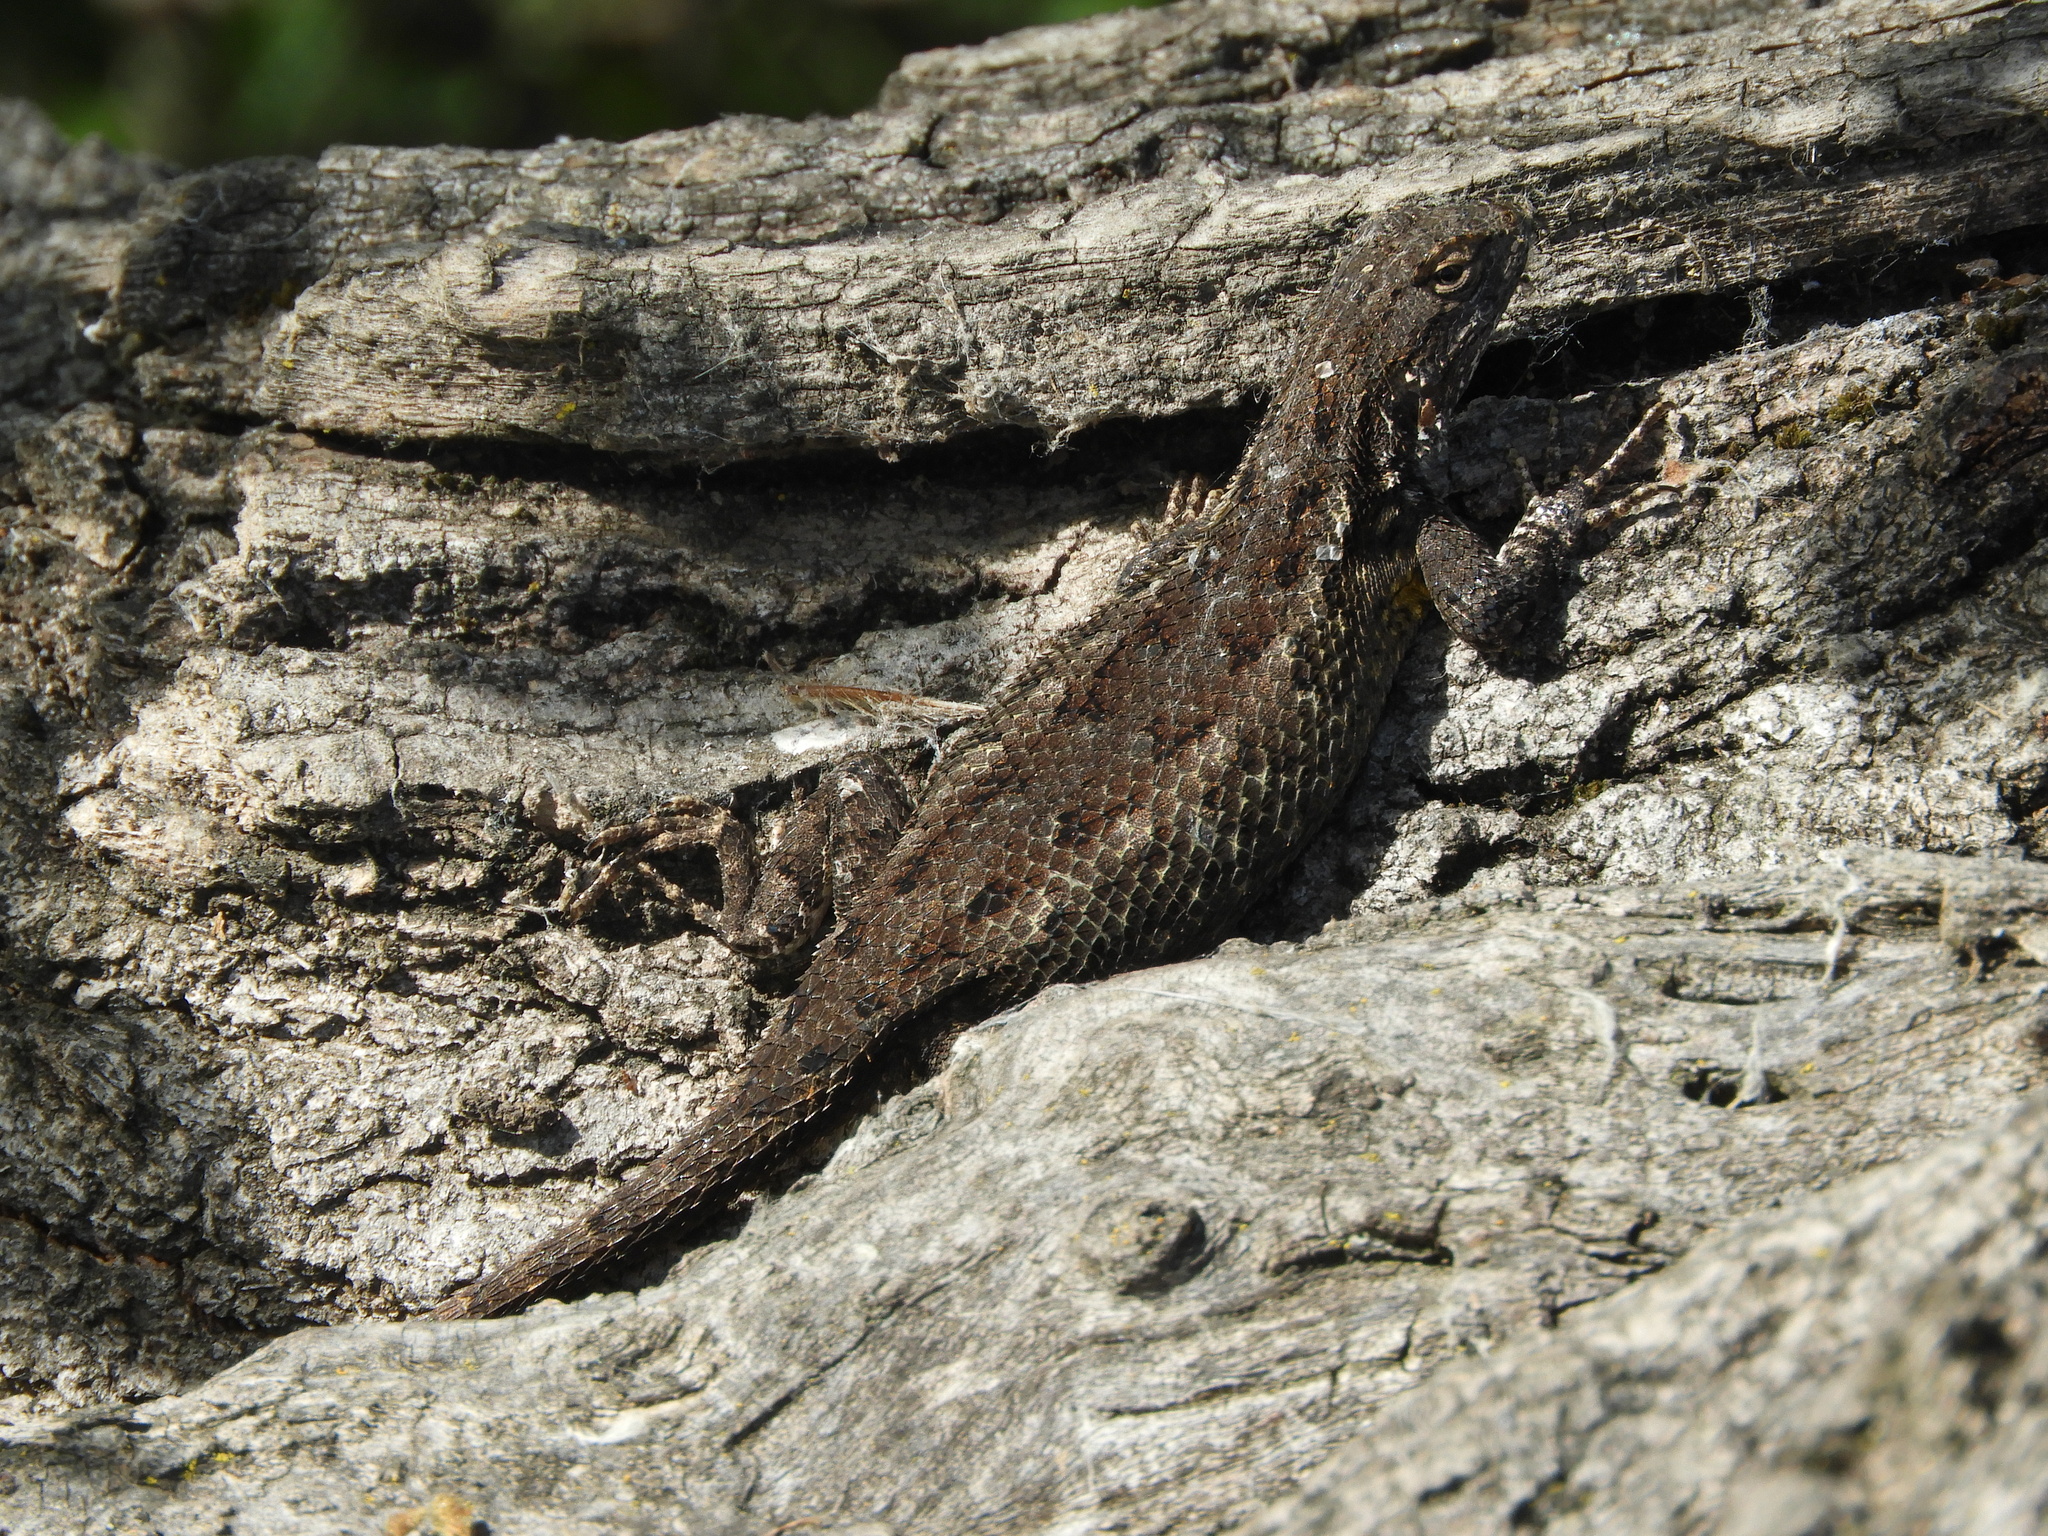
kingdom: Animalia
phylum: Chordata
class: Squamata
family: Phrynosomatidae
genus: Sceloporus
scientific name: Sceloporus occidentalis
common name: Western fence lizard
